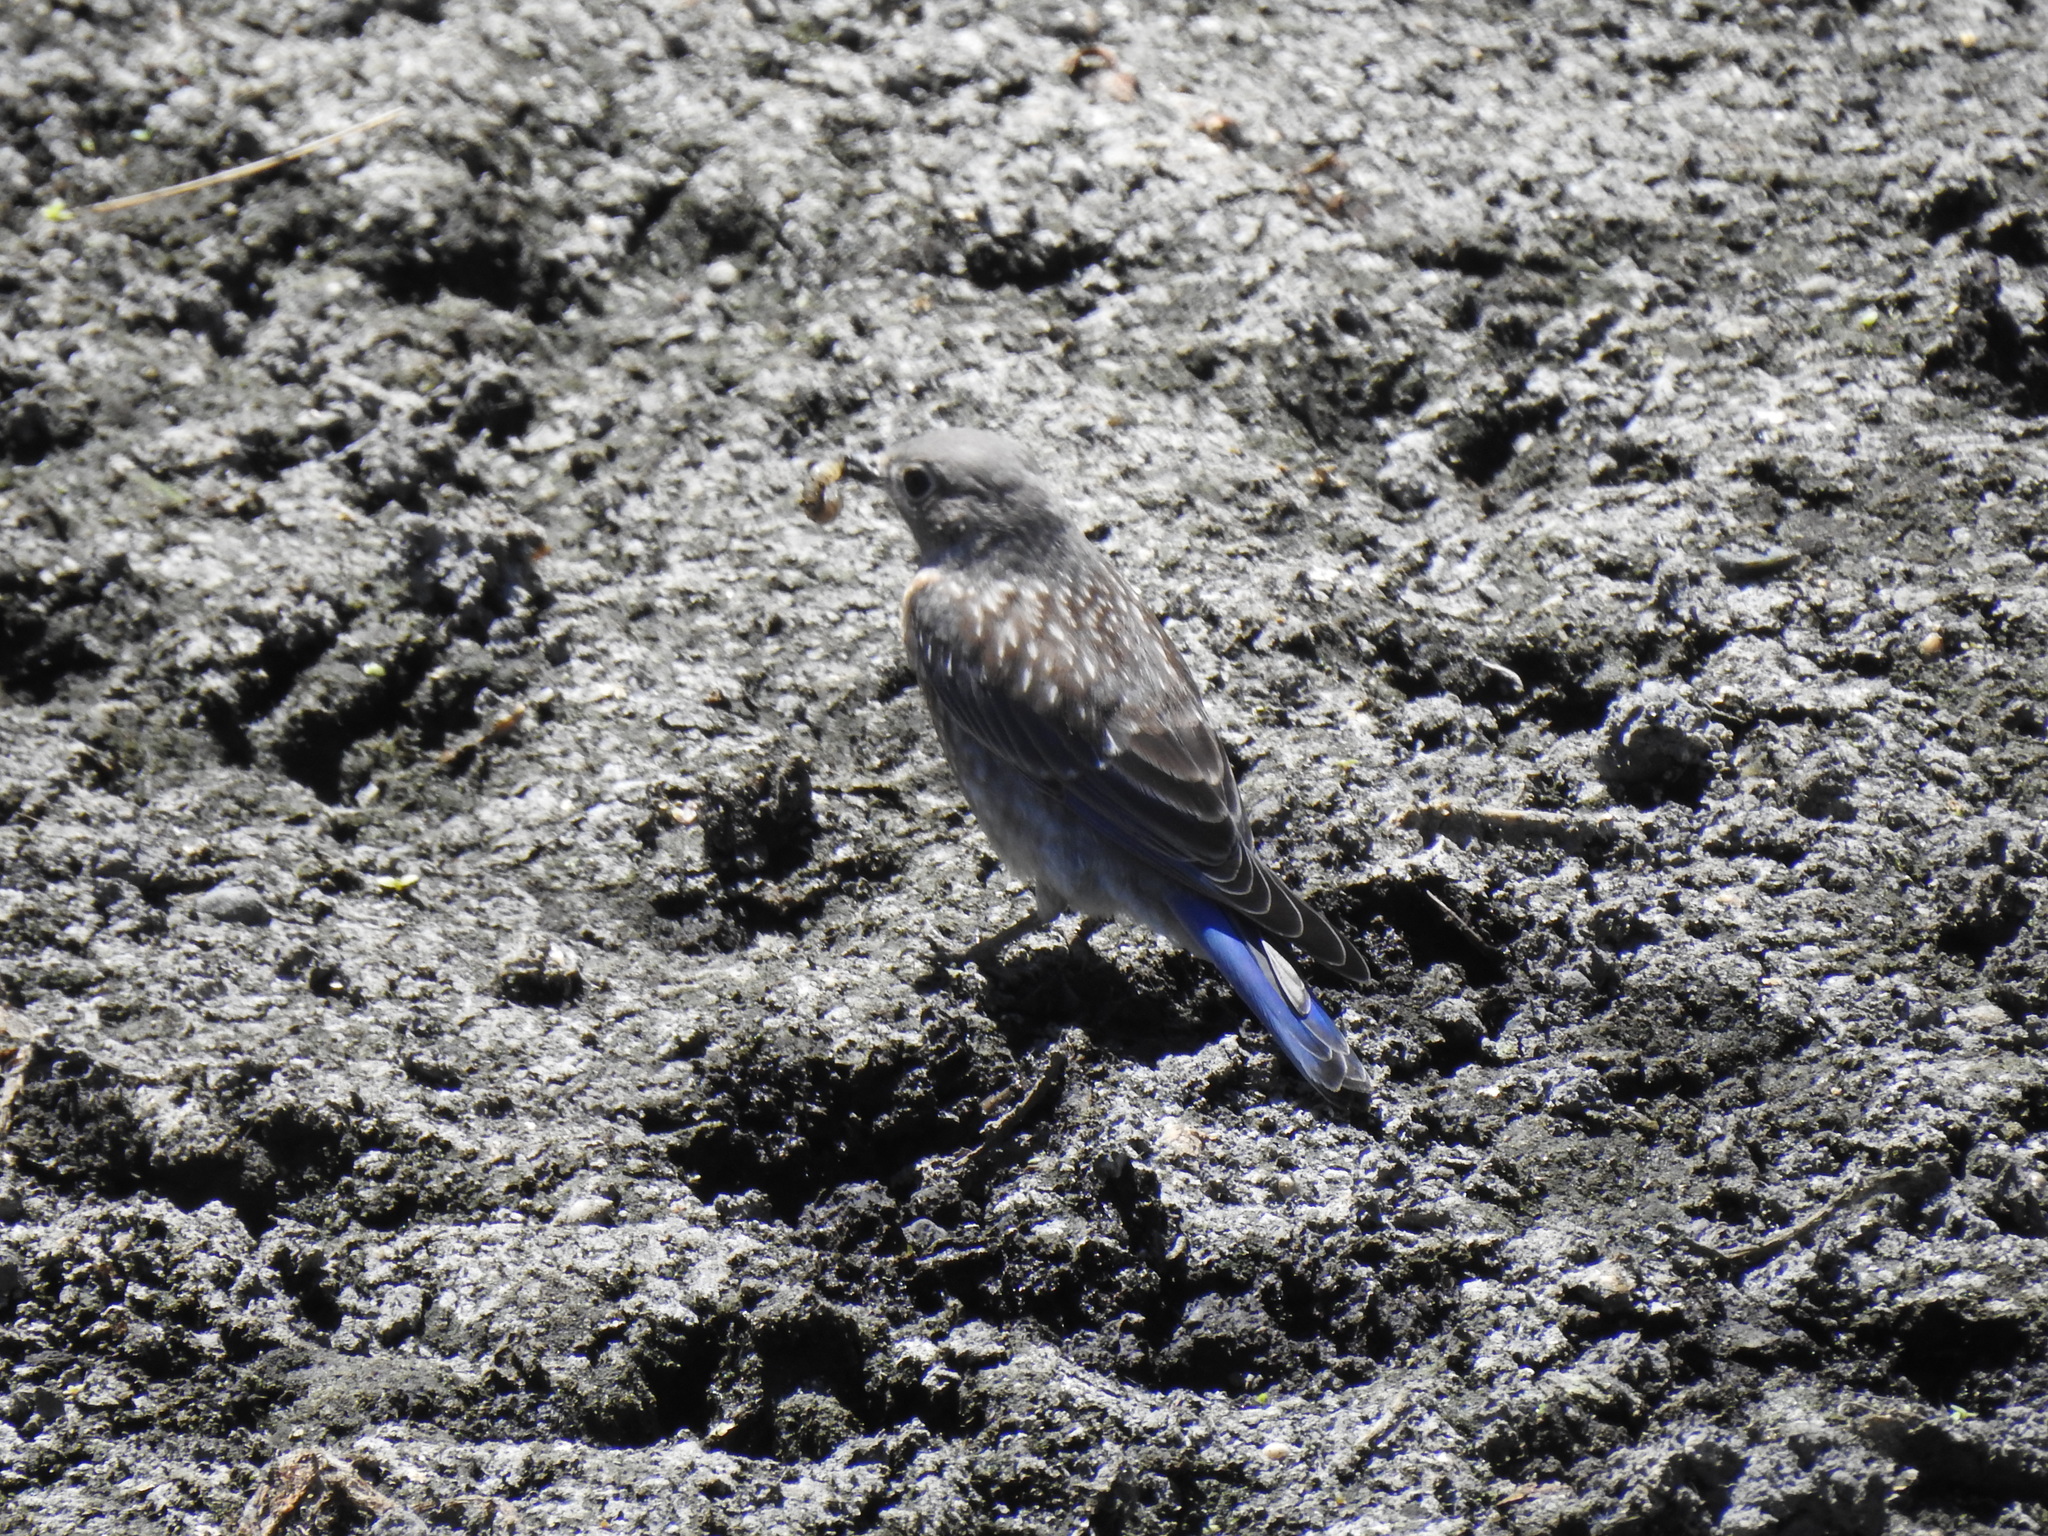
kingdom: Animalia
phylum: Chordata
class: Aves
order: Passeriformes
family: Turdidae
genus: Sialia
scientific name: Sialia mexicana
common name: Western bluebird
